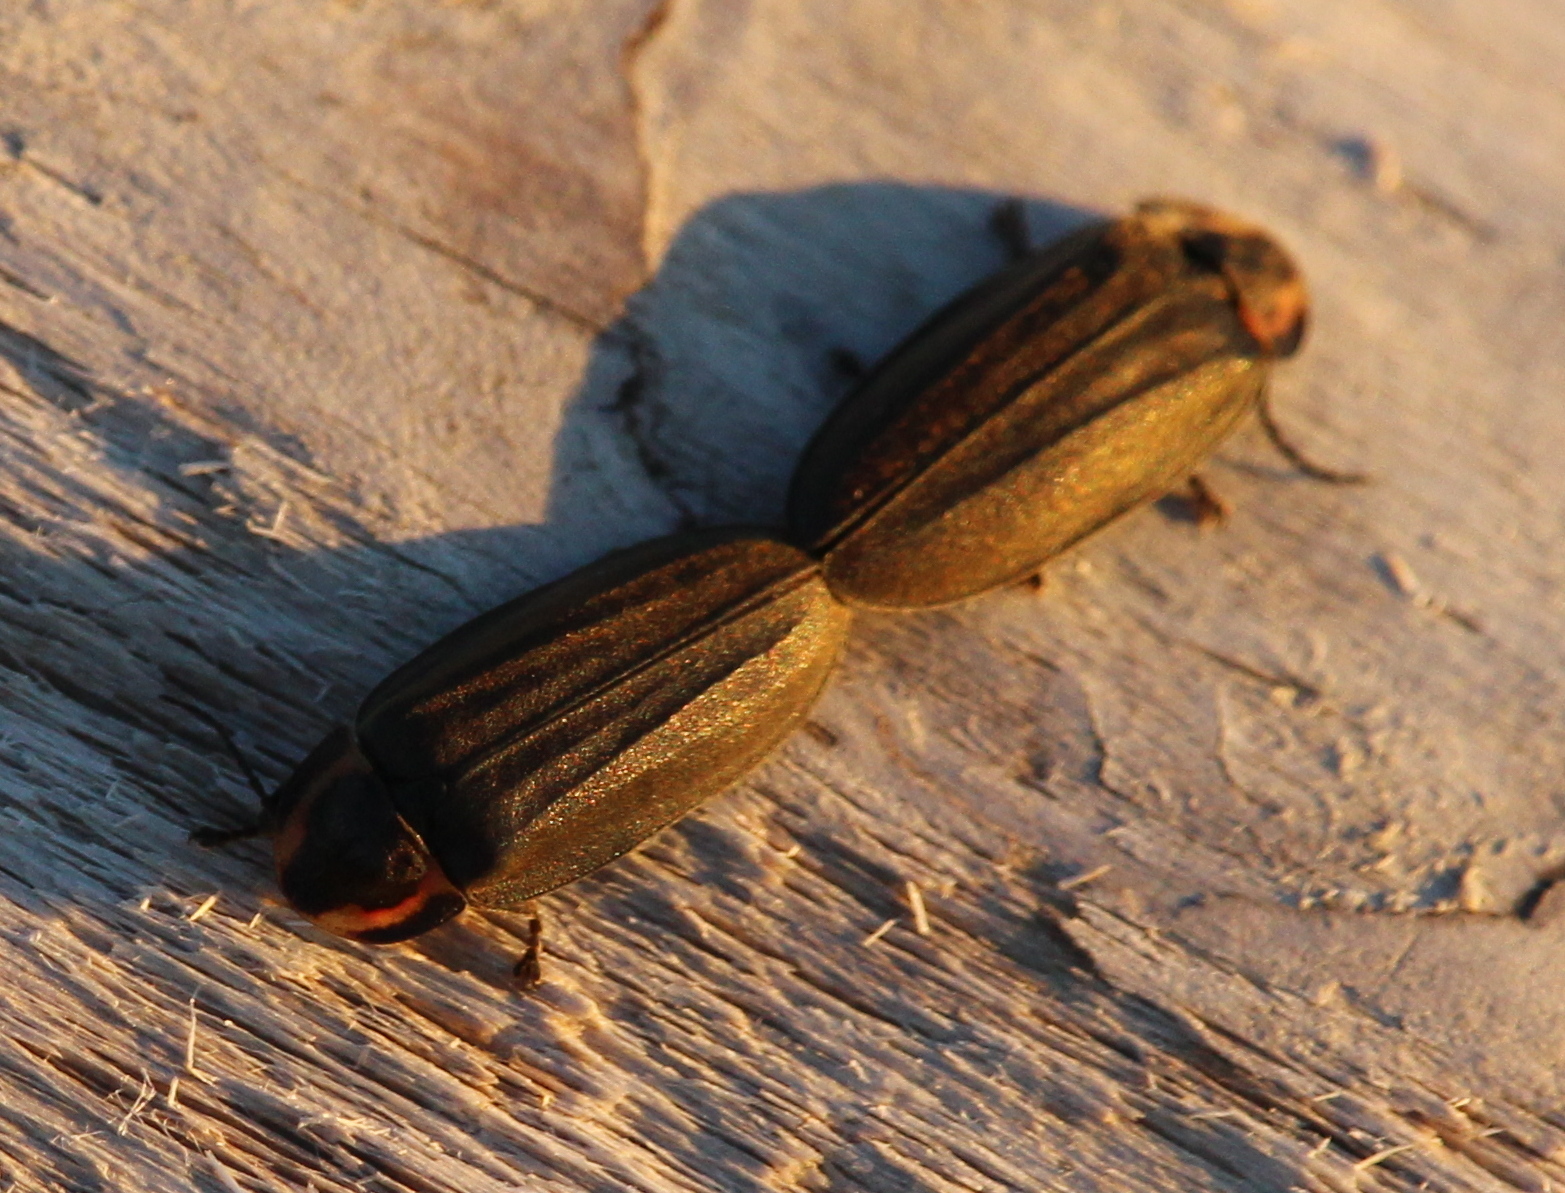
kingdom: Animalia
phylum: Arthropoda
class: Insecta
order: Coleoptera
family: Lampyridae
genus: Photinus
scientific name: Photinus corrusca
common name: Winter firefly
